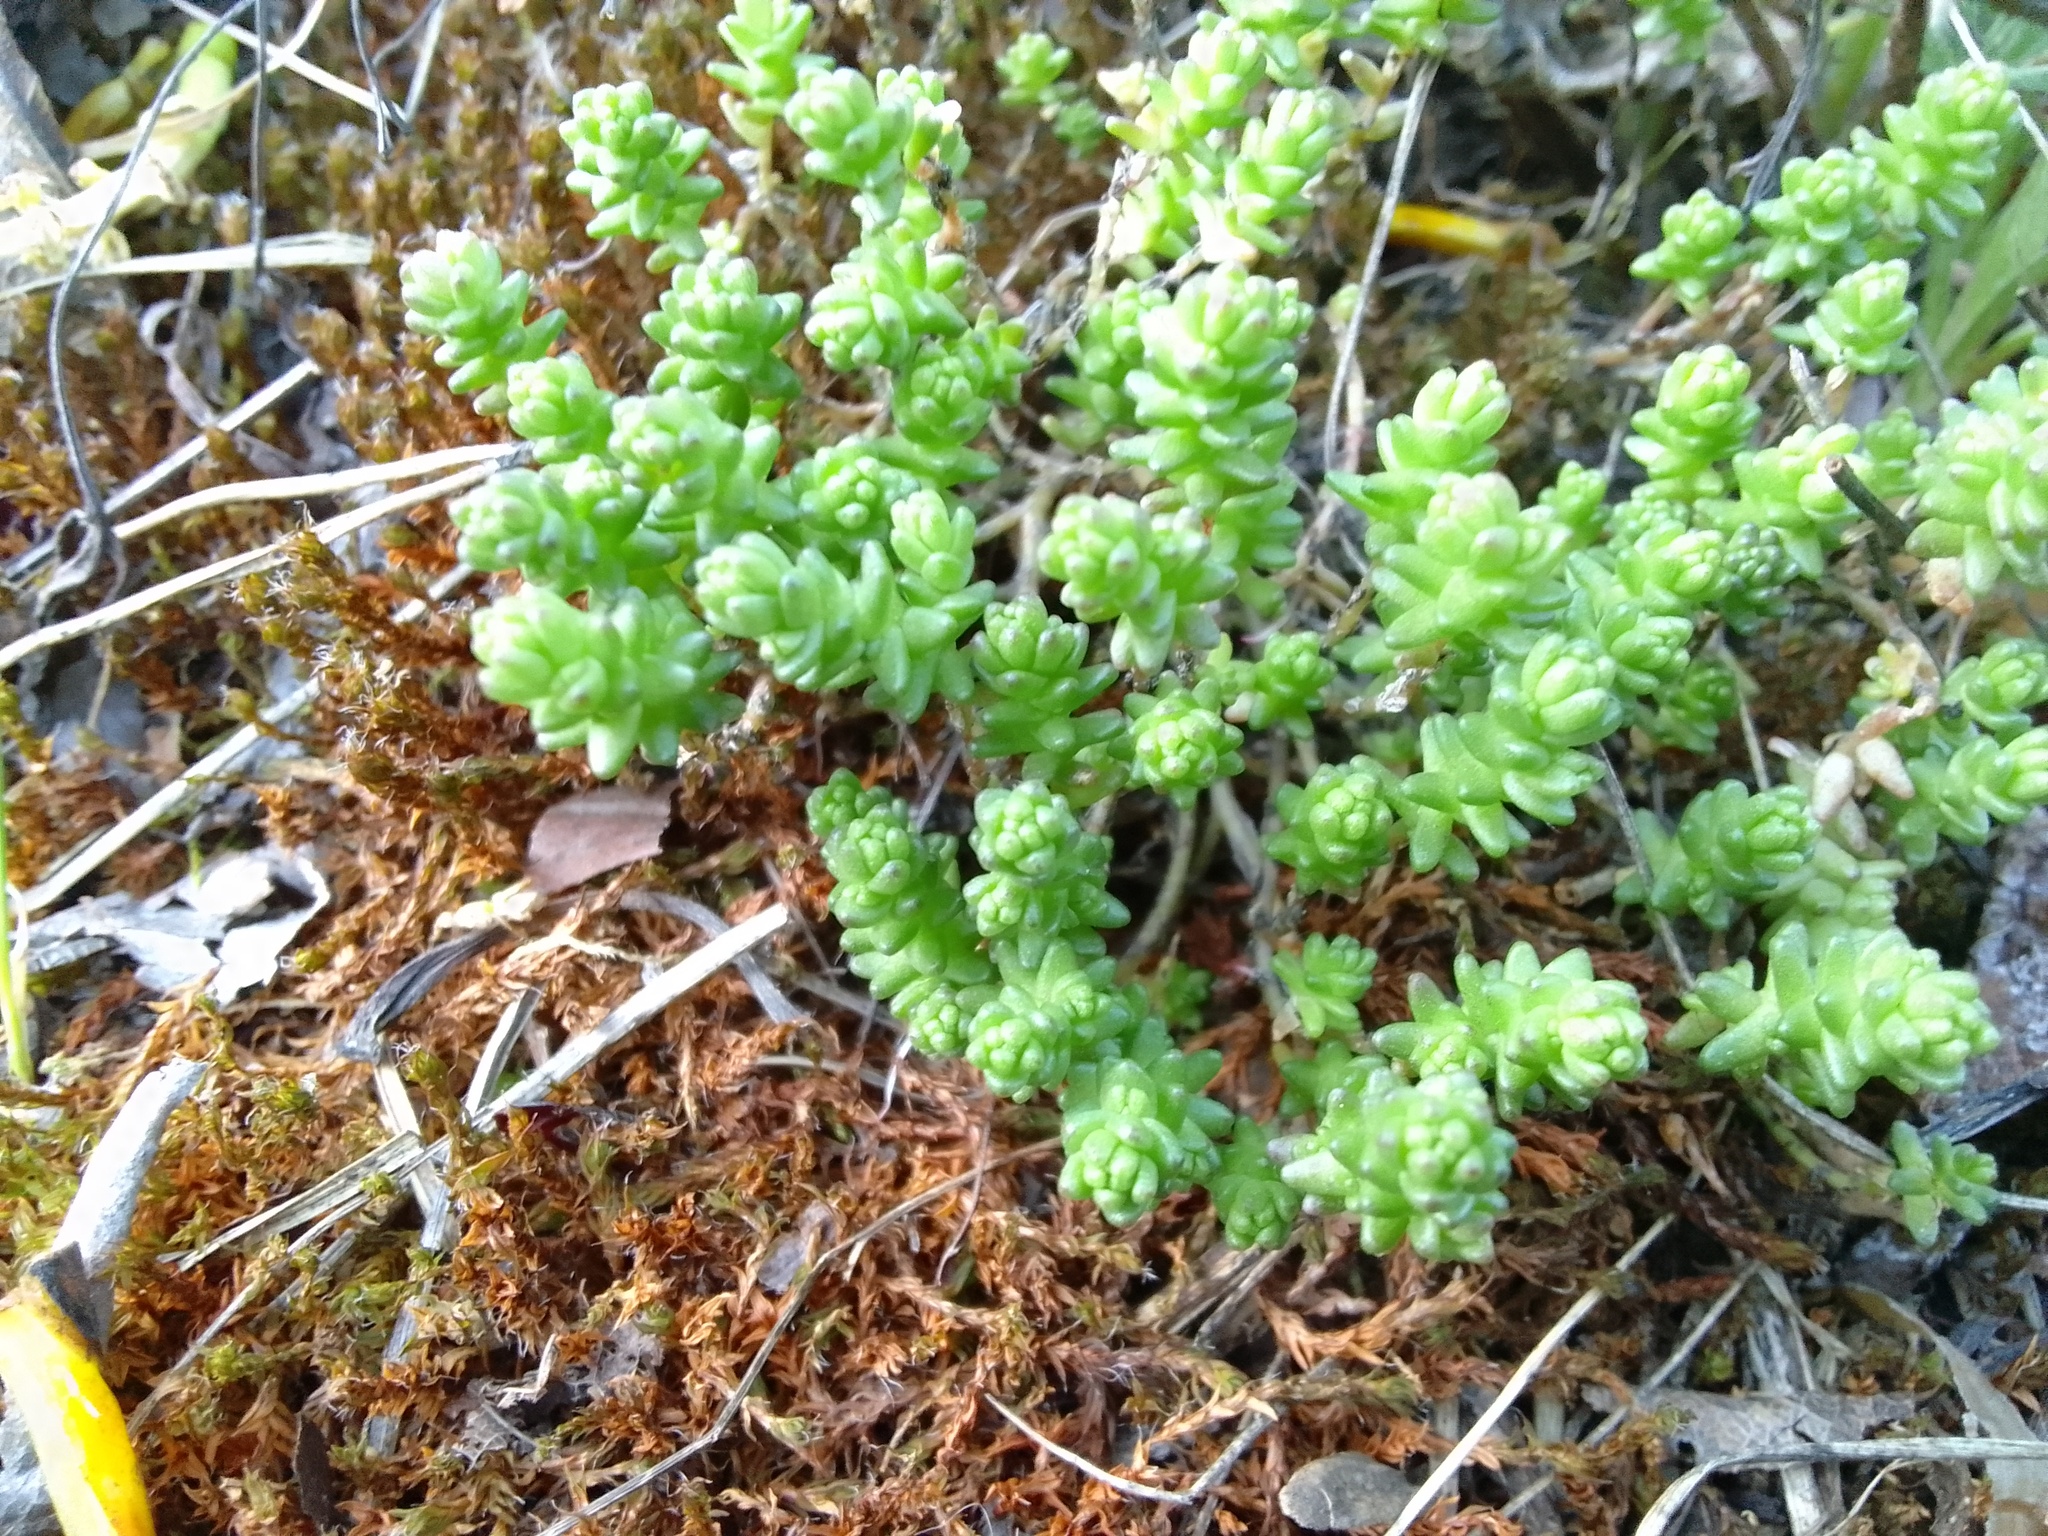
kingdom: Plantae
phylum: Tracheophyta
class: Magnoliopsida
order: Saxifragales
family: Crassulaceae
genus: Sedum
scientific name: Sedum acre
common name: Biting stonecrop
